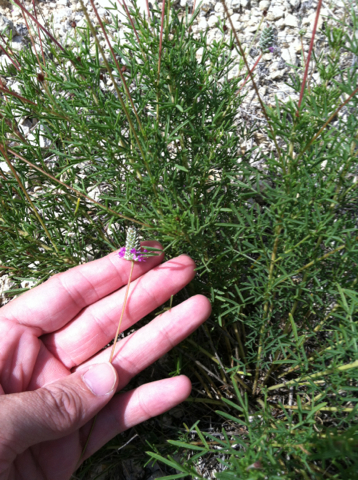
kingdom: Plantae
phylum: Tracheophyta
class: Magnoliopsida
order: Fabales
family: Fabaceae
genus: Dalea
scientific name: Dalea tenuis
